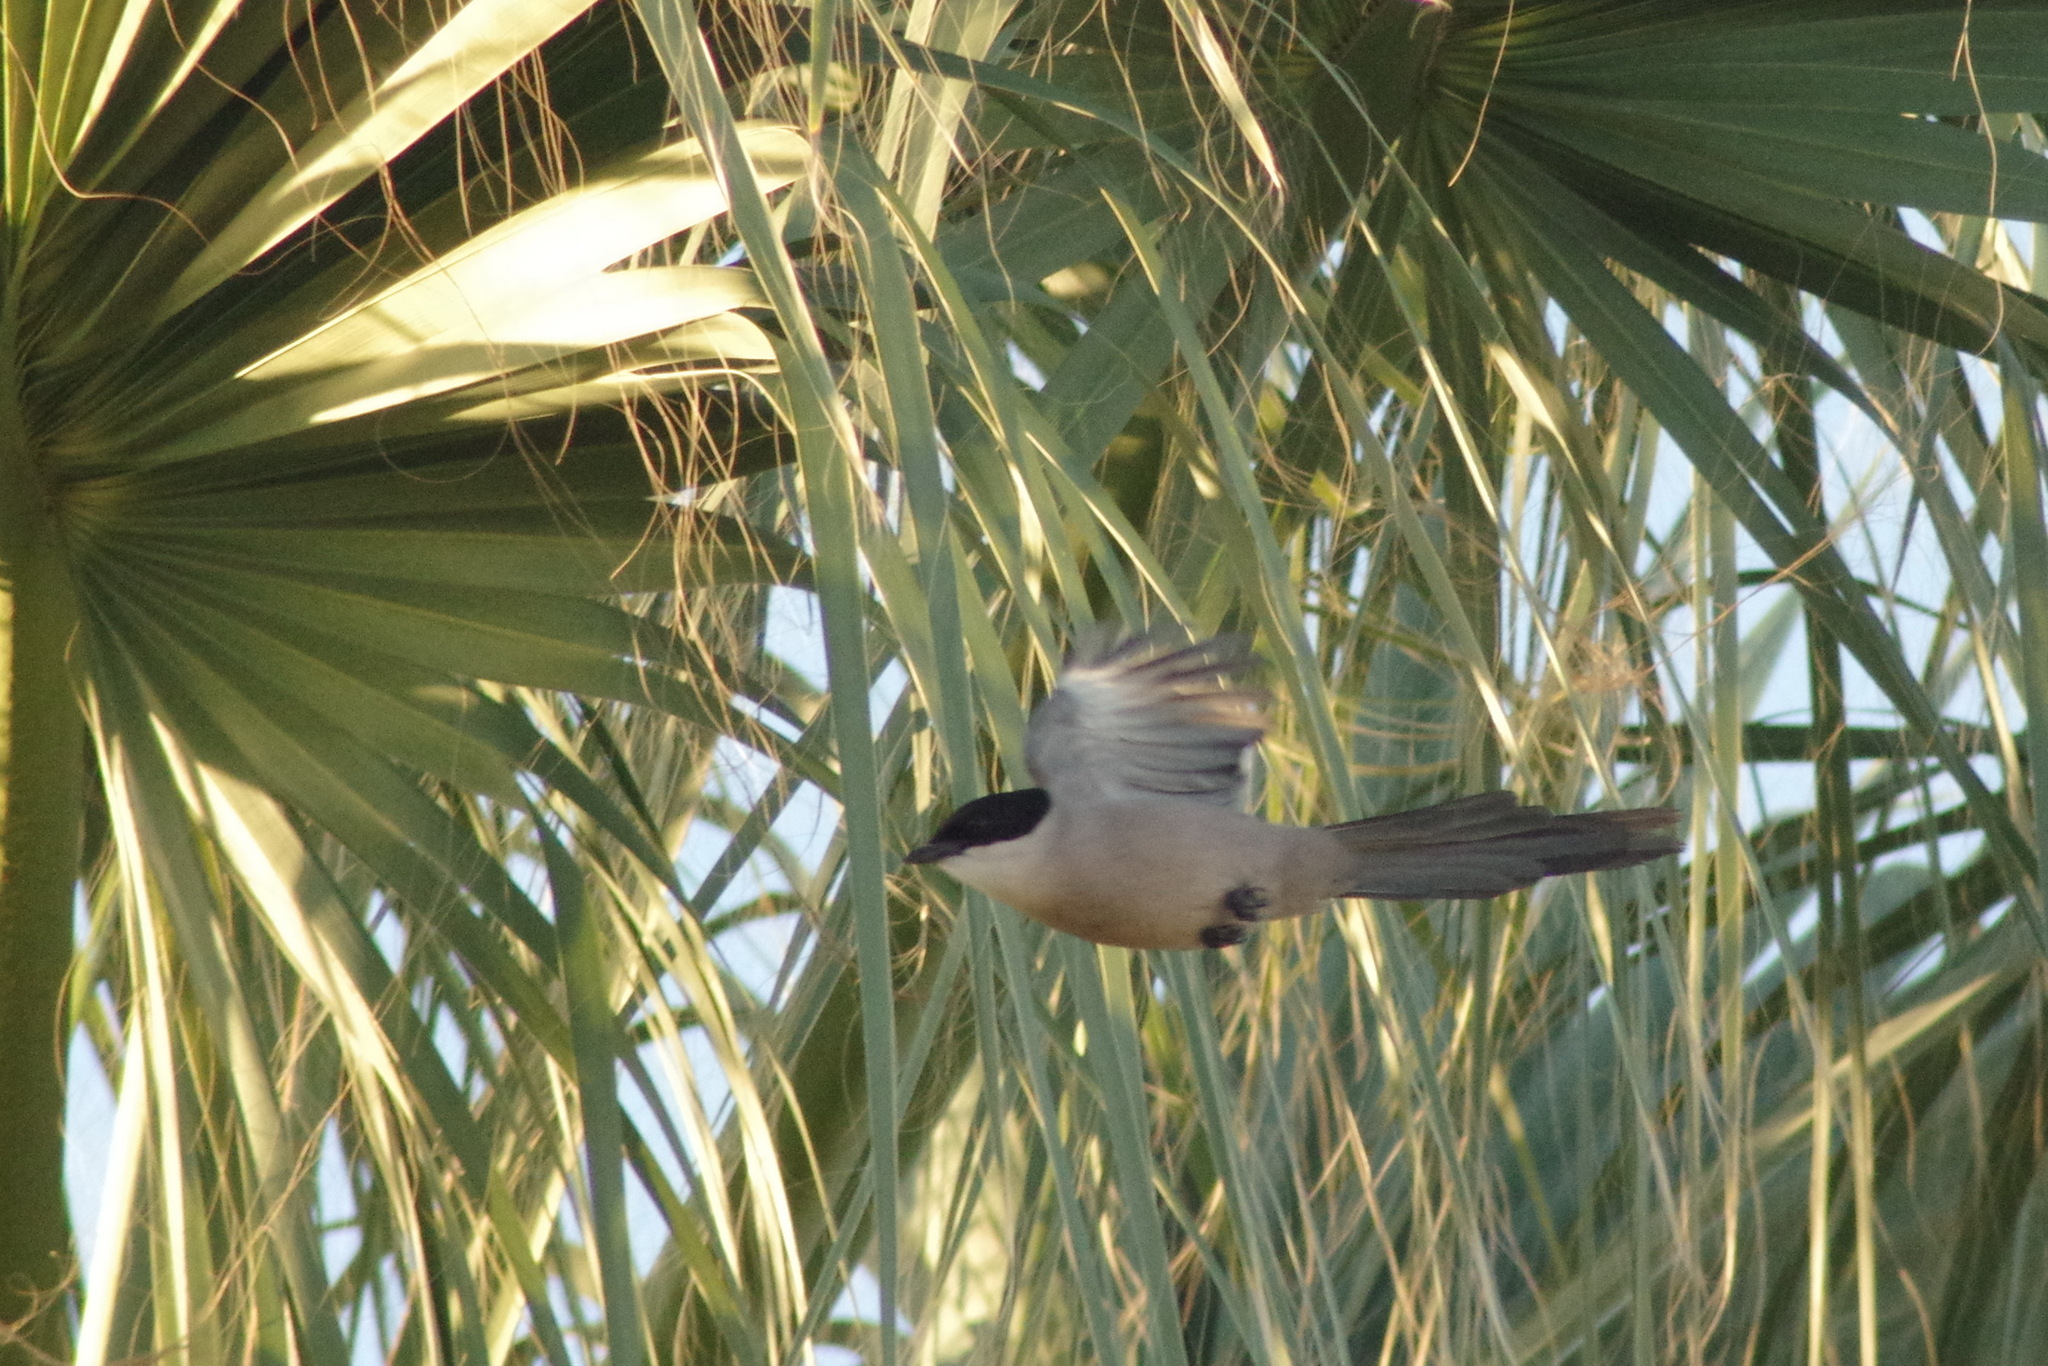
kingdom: Animalia
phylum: Chordata
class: Aves
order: Passeriformes
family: Corvidae
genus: Cyanopica
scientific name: Cyanopica cooki
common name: Iberian magpie
